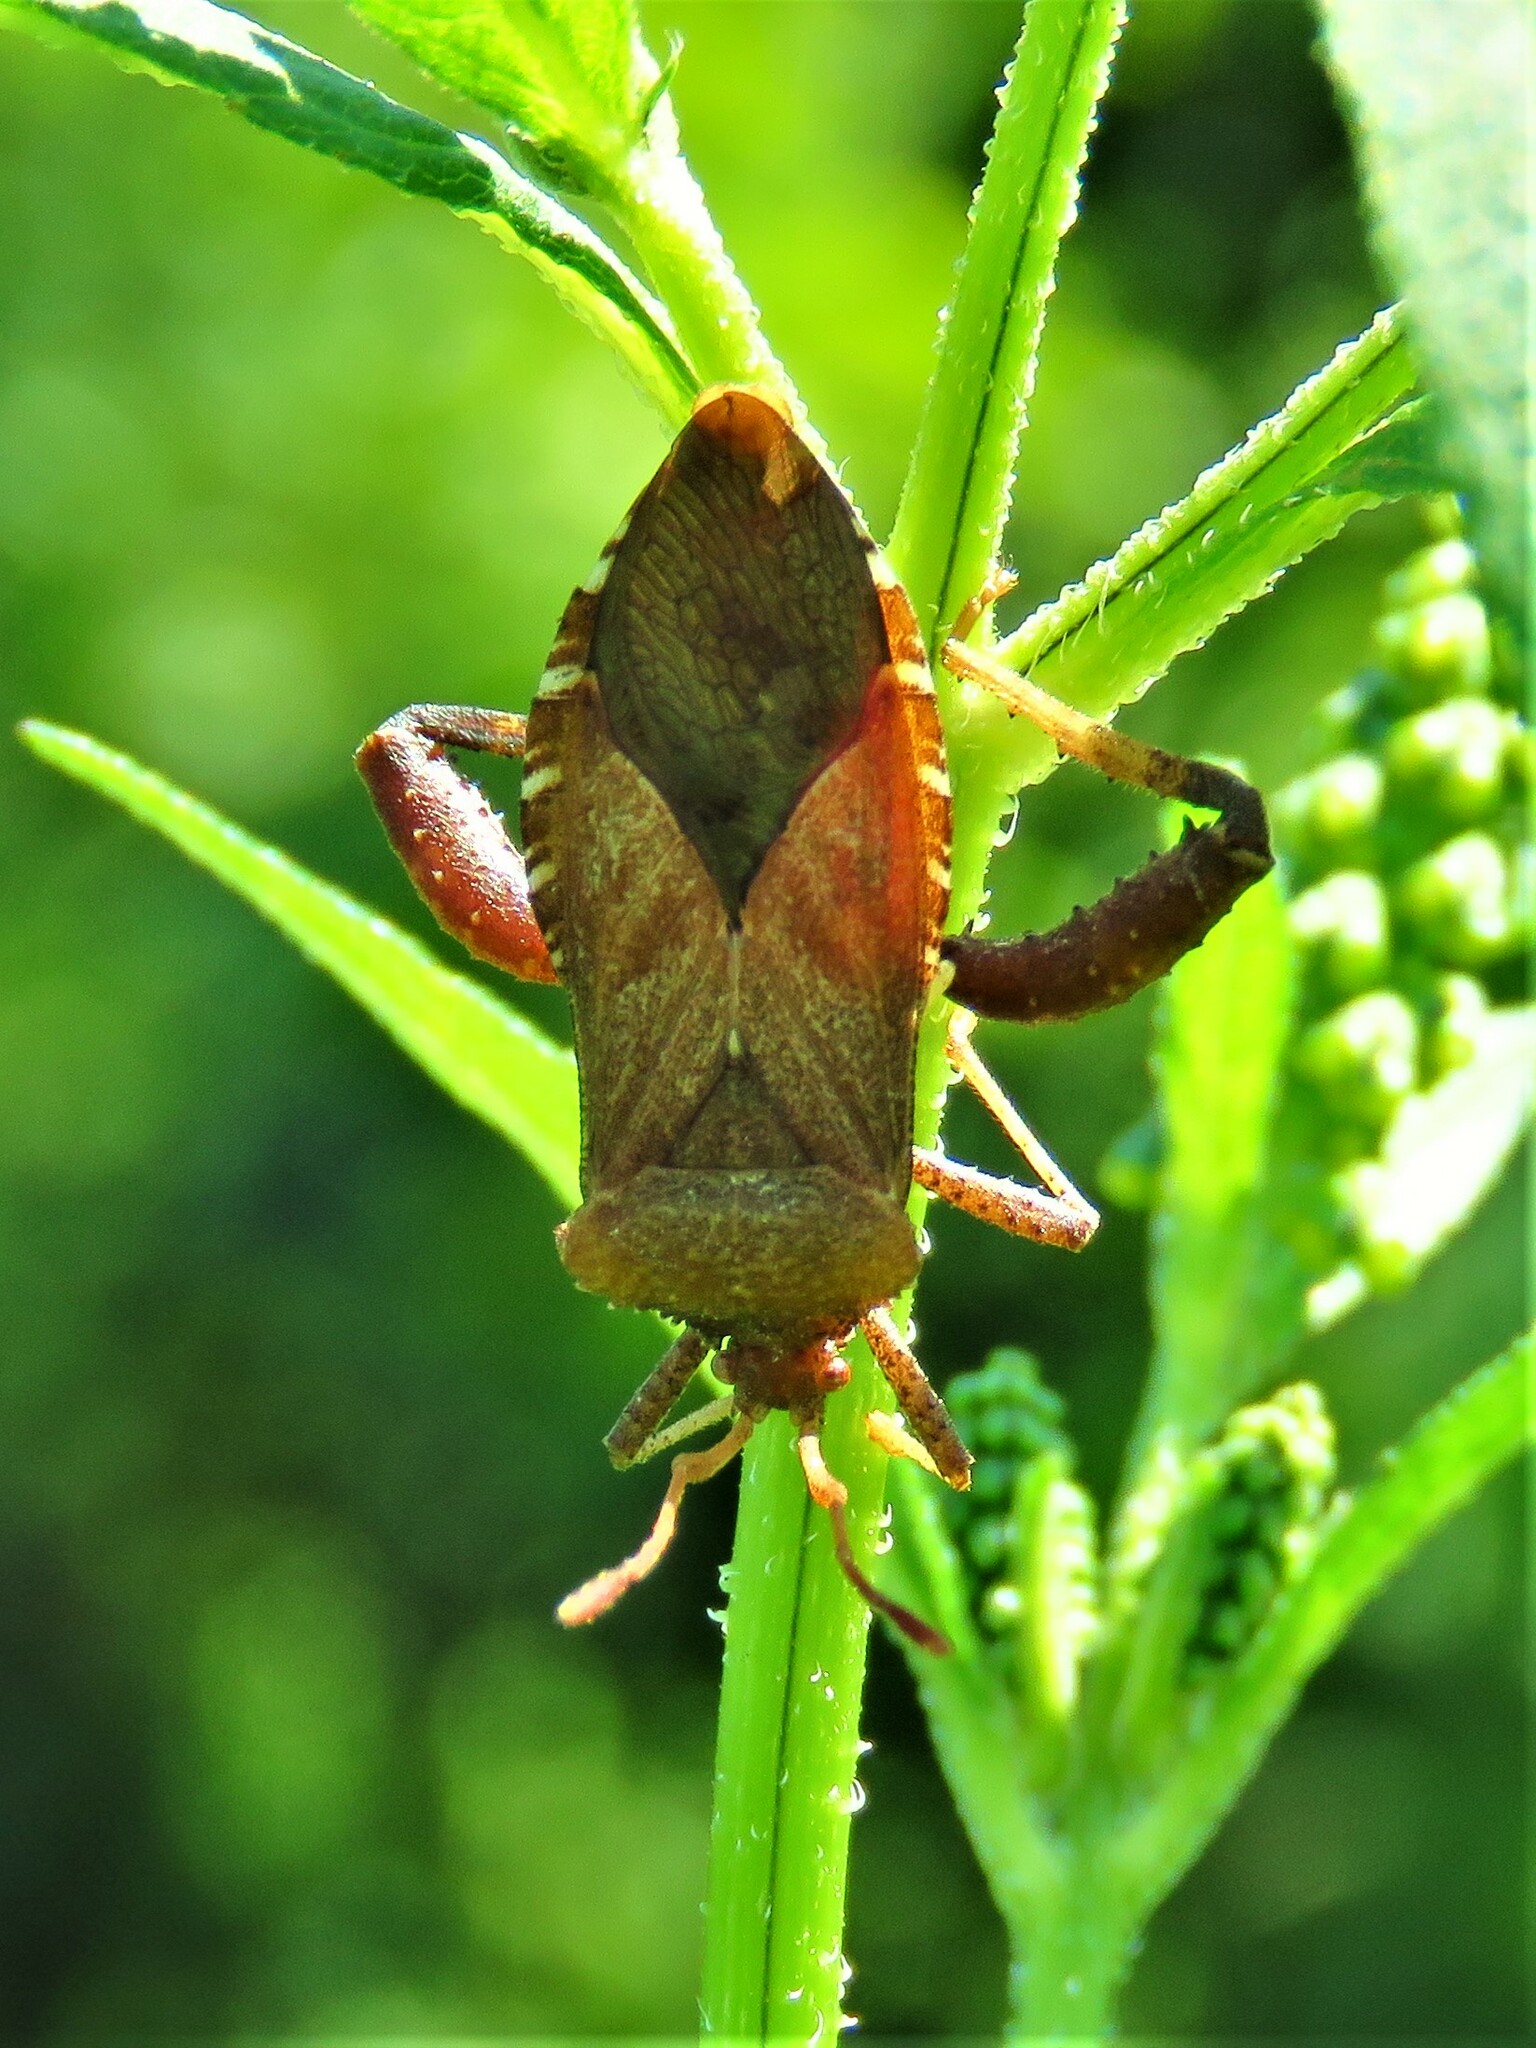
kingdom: Animalia
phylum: Arthropoda
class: Insecta
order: Hemiptera
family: Coreidae
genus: Euthochtha
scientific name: Euthochtha galeator
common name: Helmeted squash bug
